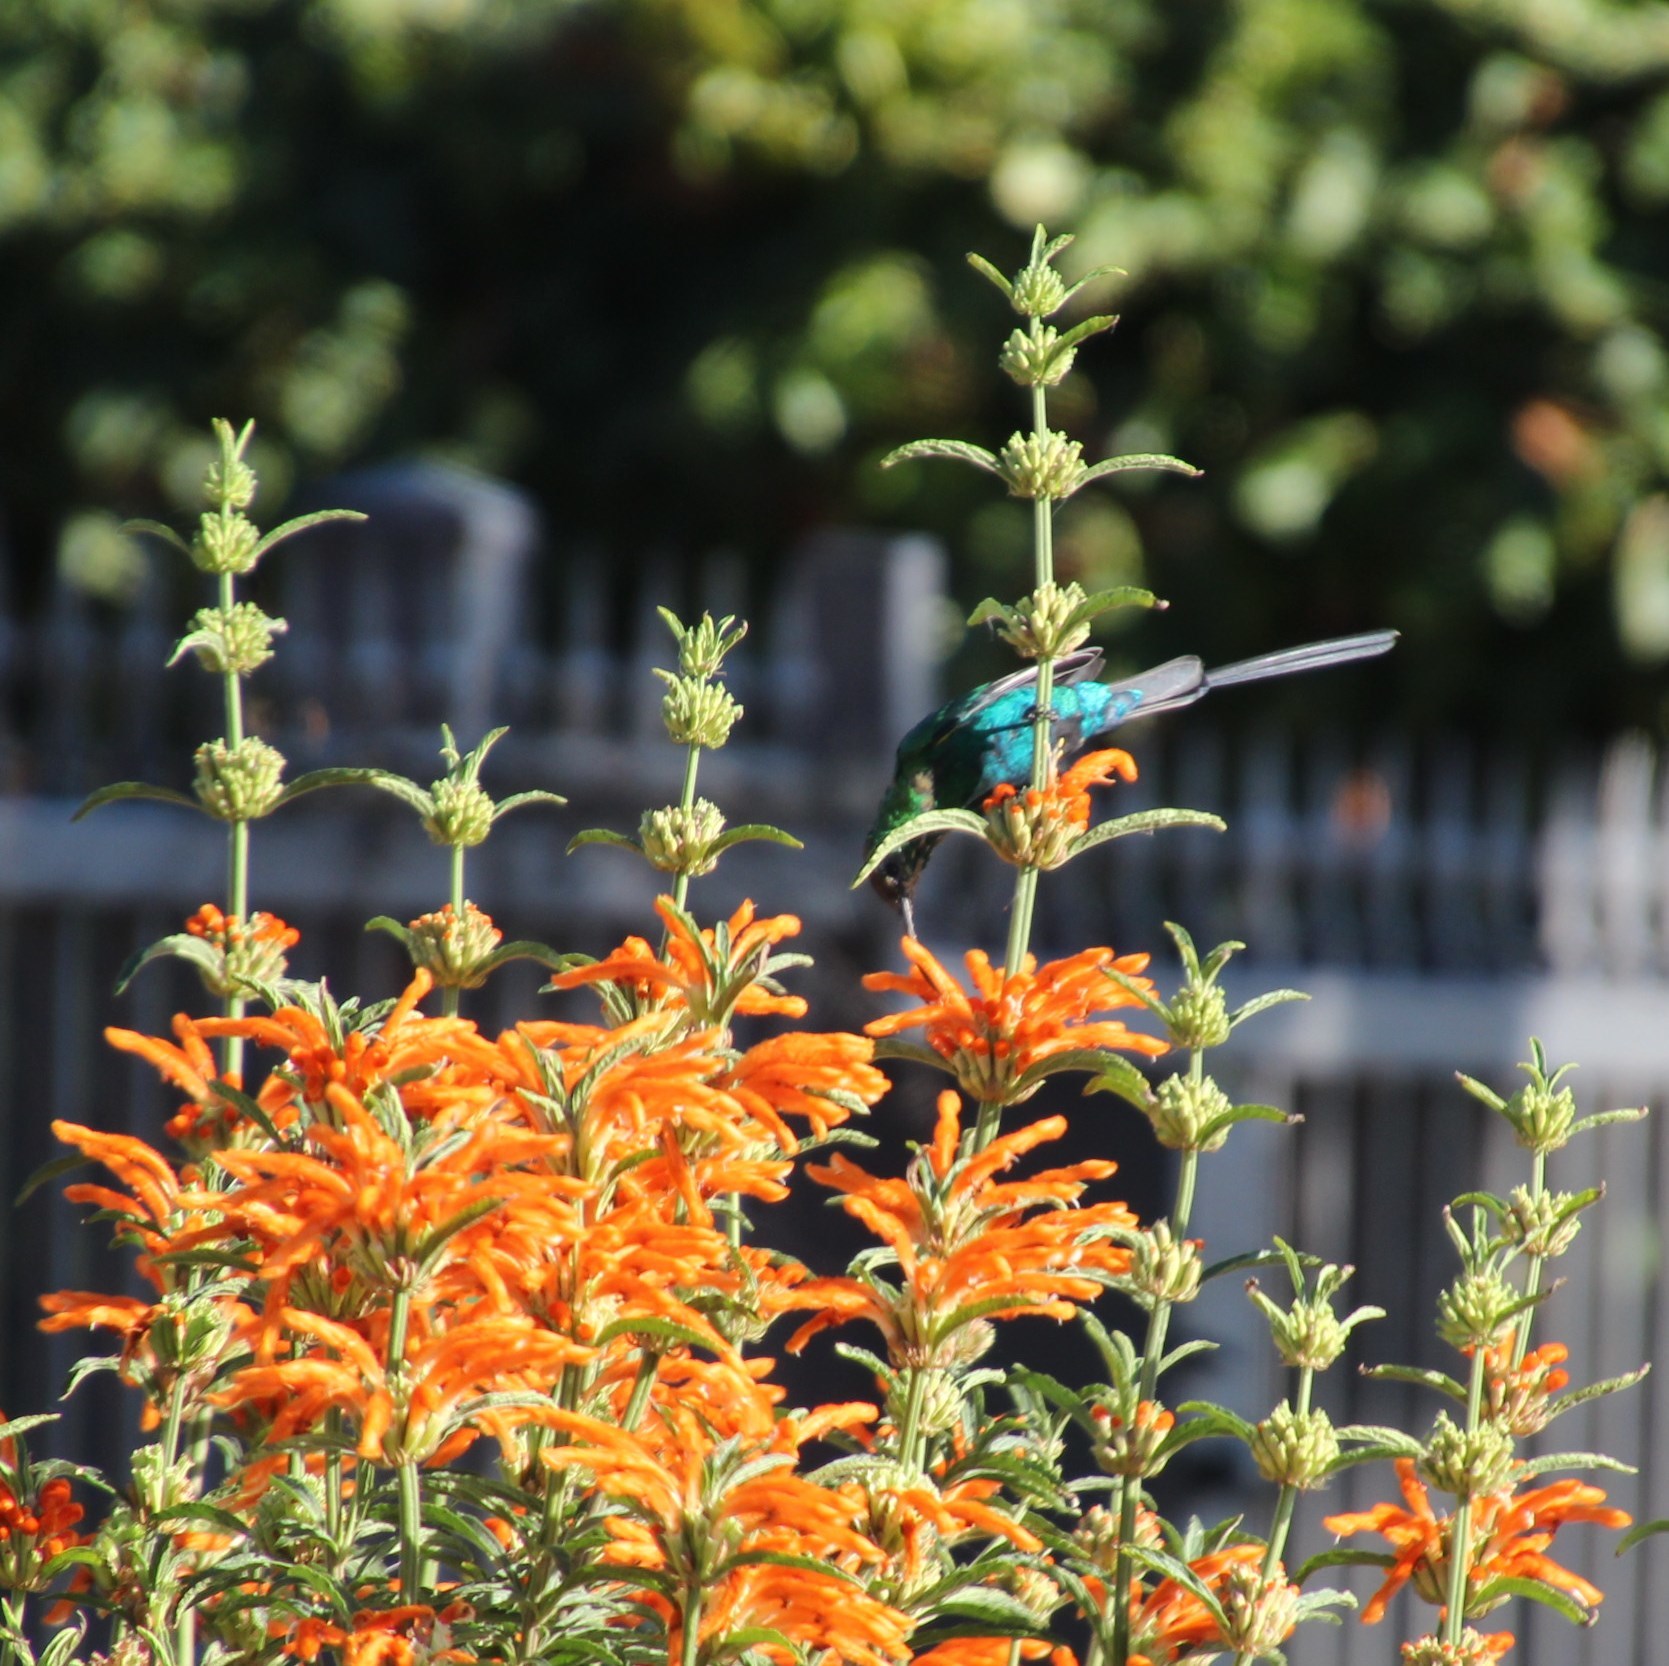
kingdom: Animalia
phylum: Chordata
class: Aves
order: Passeriformes
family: Nectariniidae
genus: Nectarinia
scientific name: Nectarinia famosa
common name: Malachite sunbird
